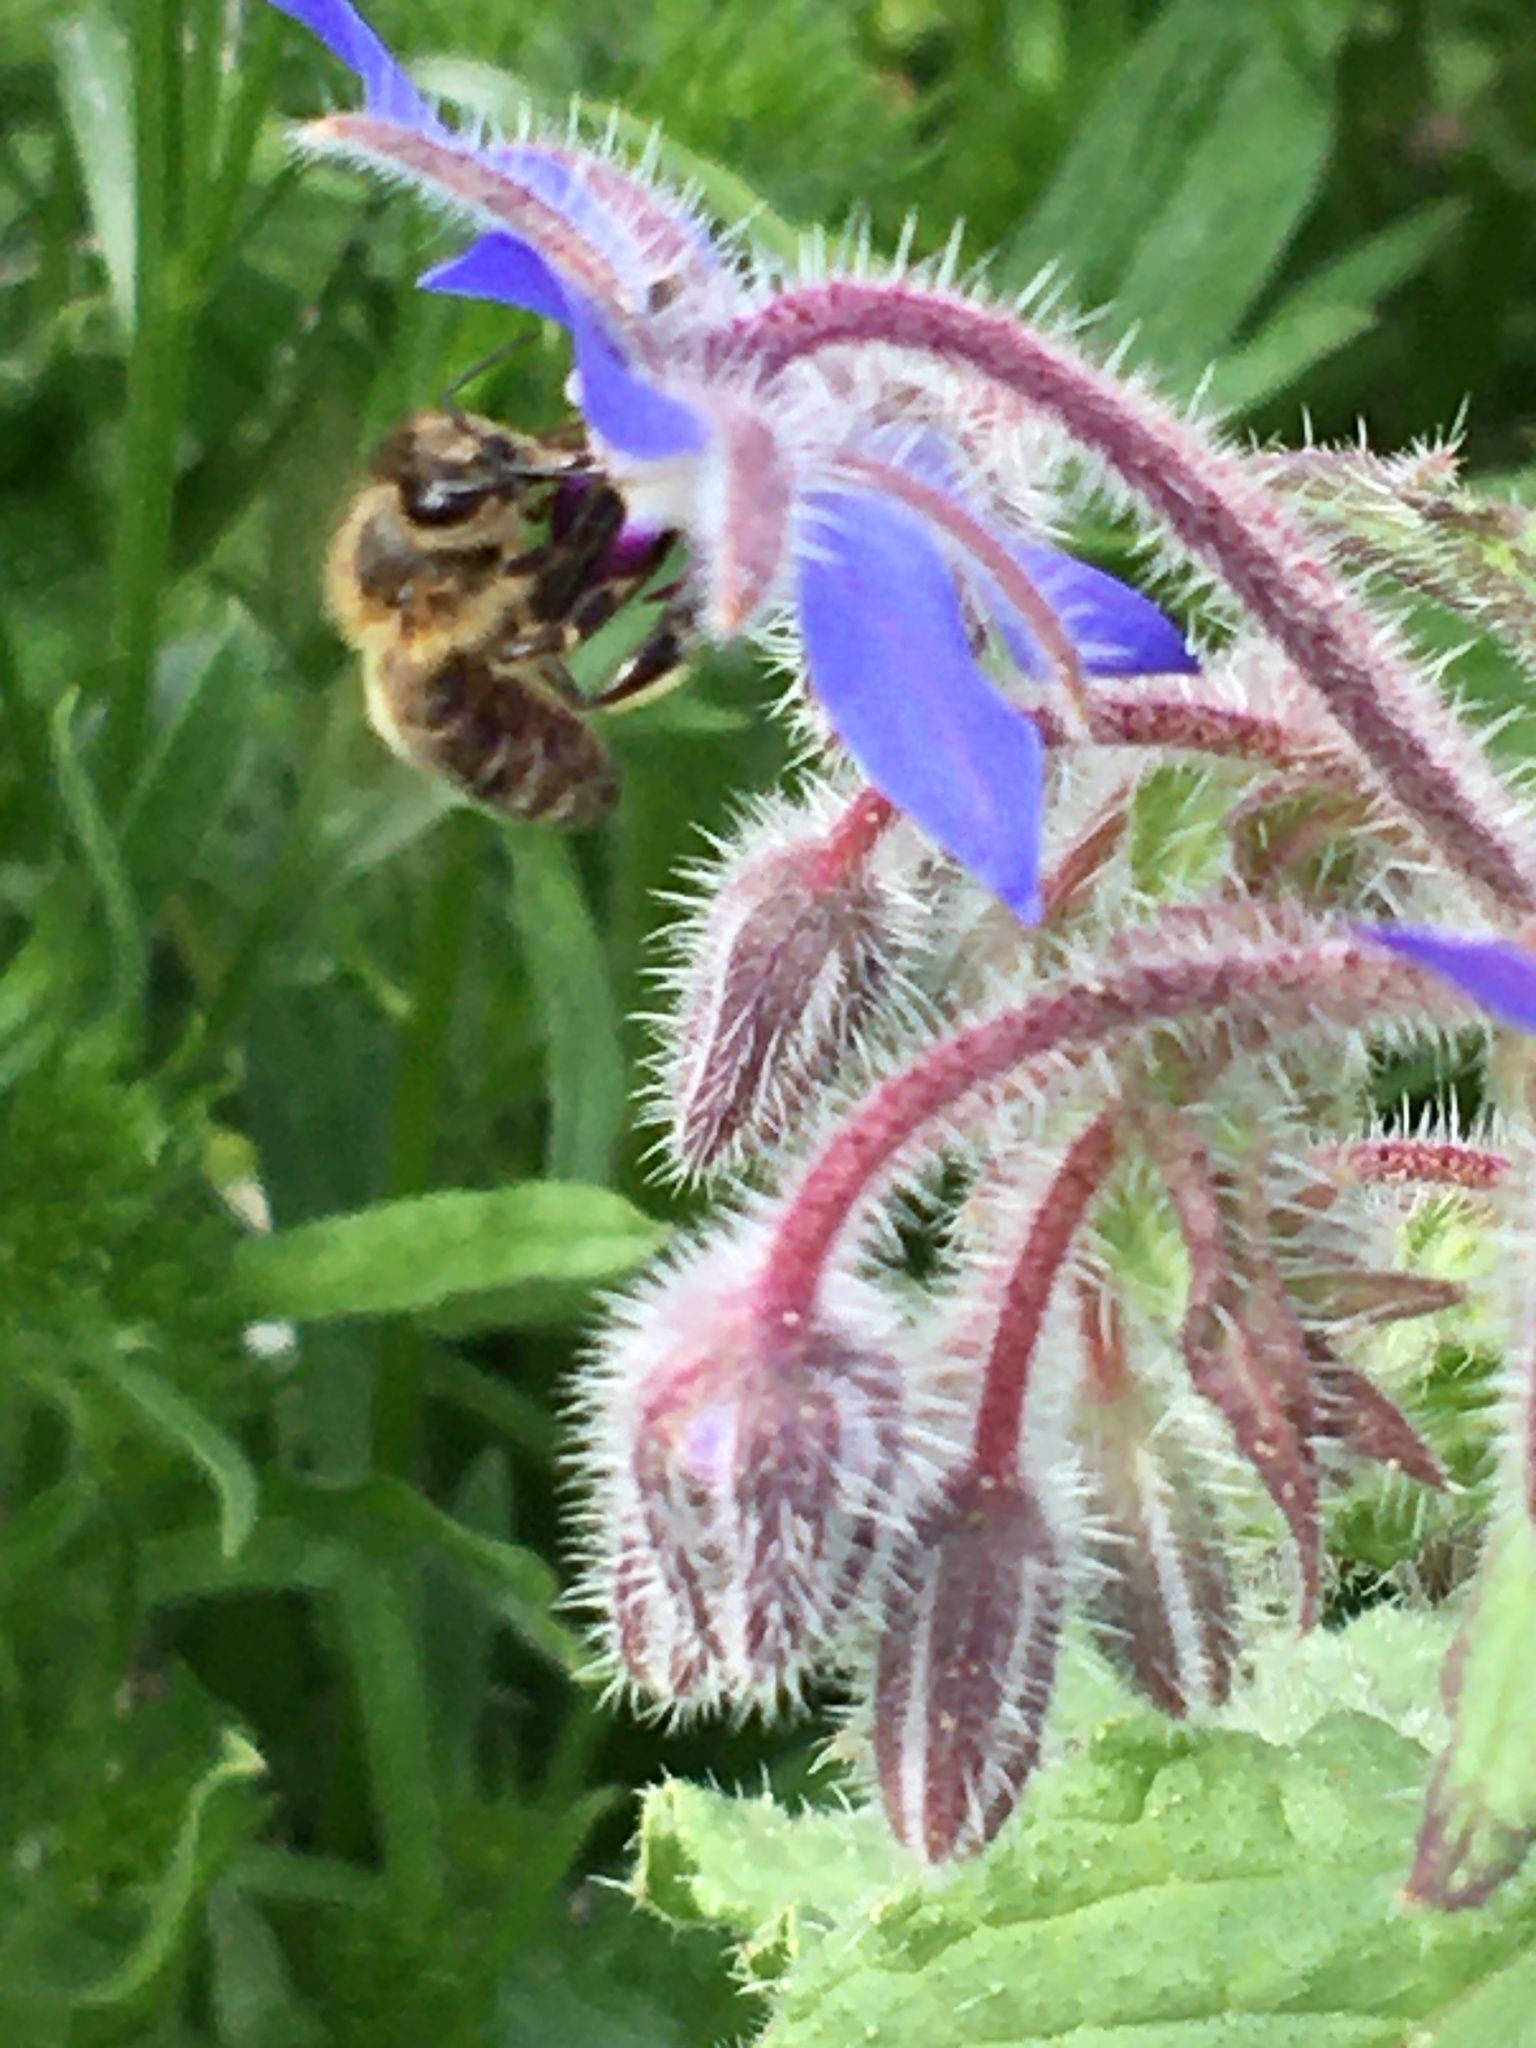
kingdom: Animalia
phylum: Arthropoda
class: Insecta
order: Hymenoptera
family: Apidae
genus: Apis
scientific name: Apis mellifera
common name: Honey bee
